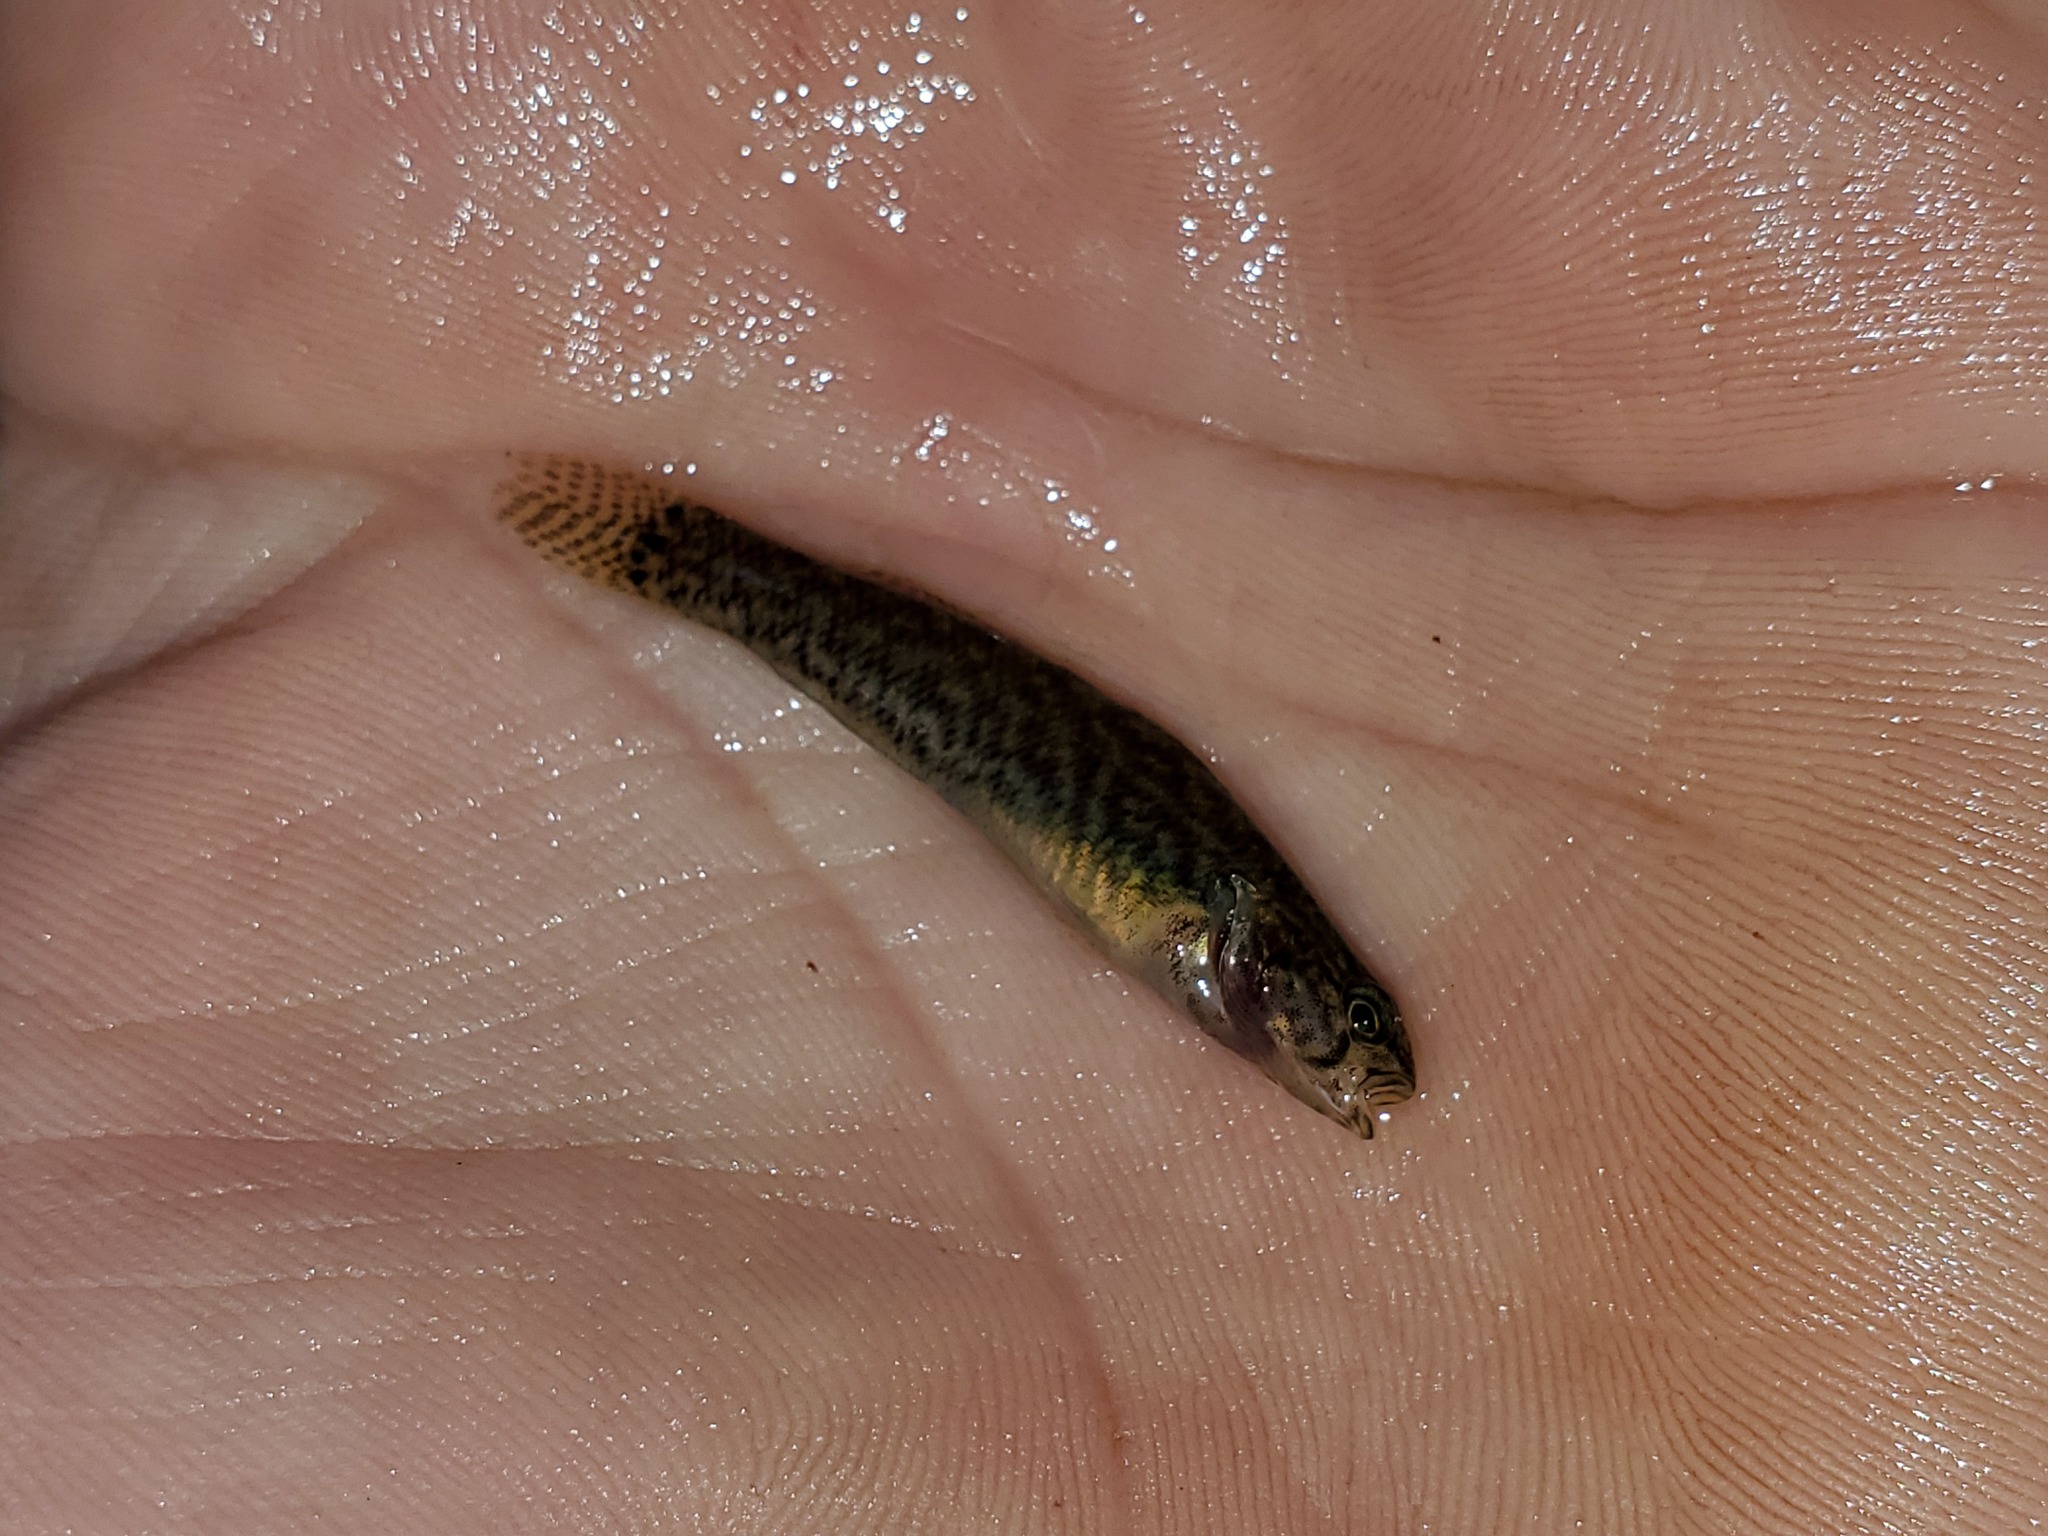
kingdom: Animalia
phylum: Chordata
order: Perciformes
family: Percidae
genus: Etheostoma
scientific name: Etheostoma squamiceps
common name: Spottail darter
